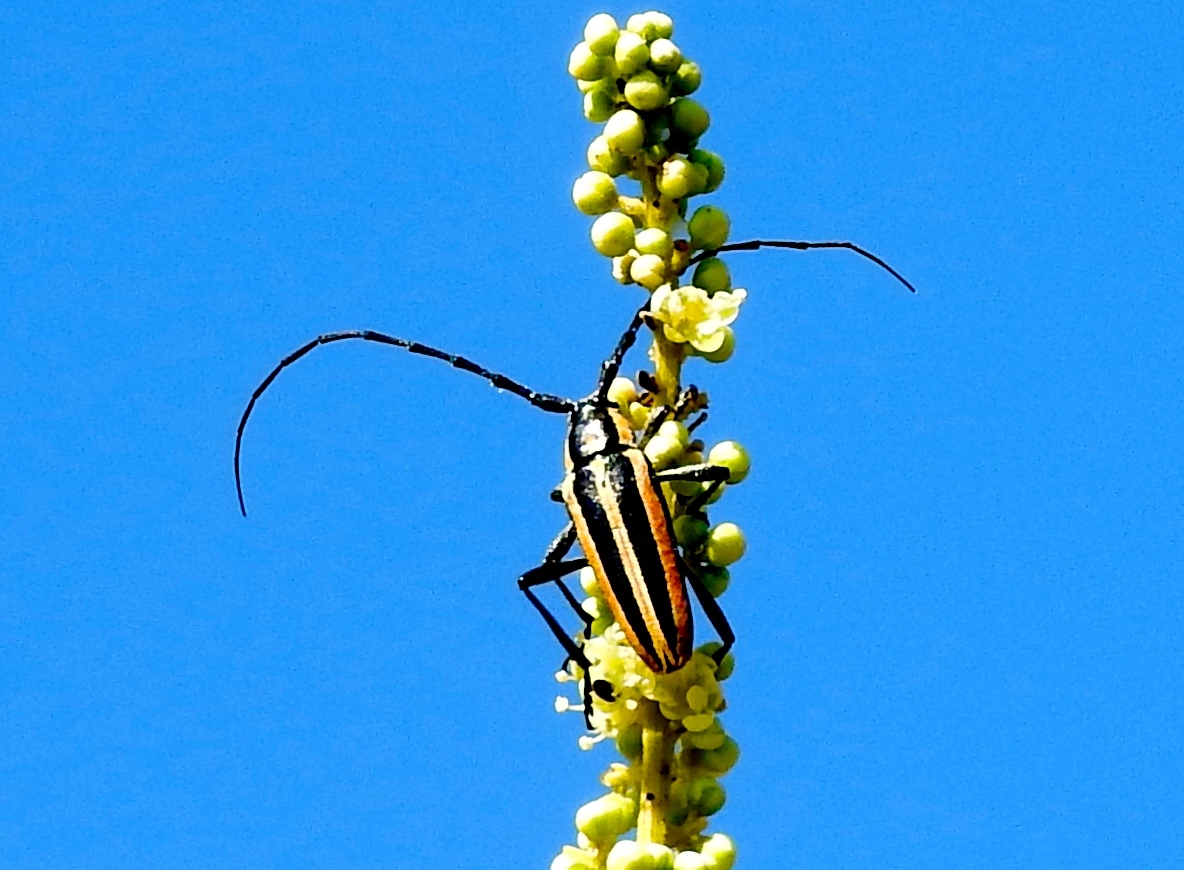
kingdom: Animalia
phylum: Arthropoda
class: Insecta
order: Coleoptera
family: Cerambycidae
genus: Sphaenothecus
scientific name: Sphaenothecus trilineatus
